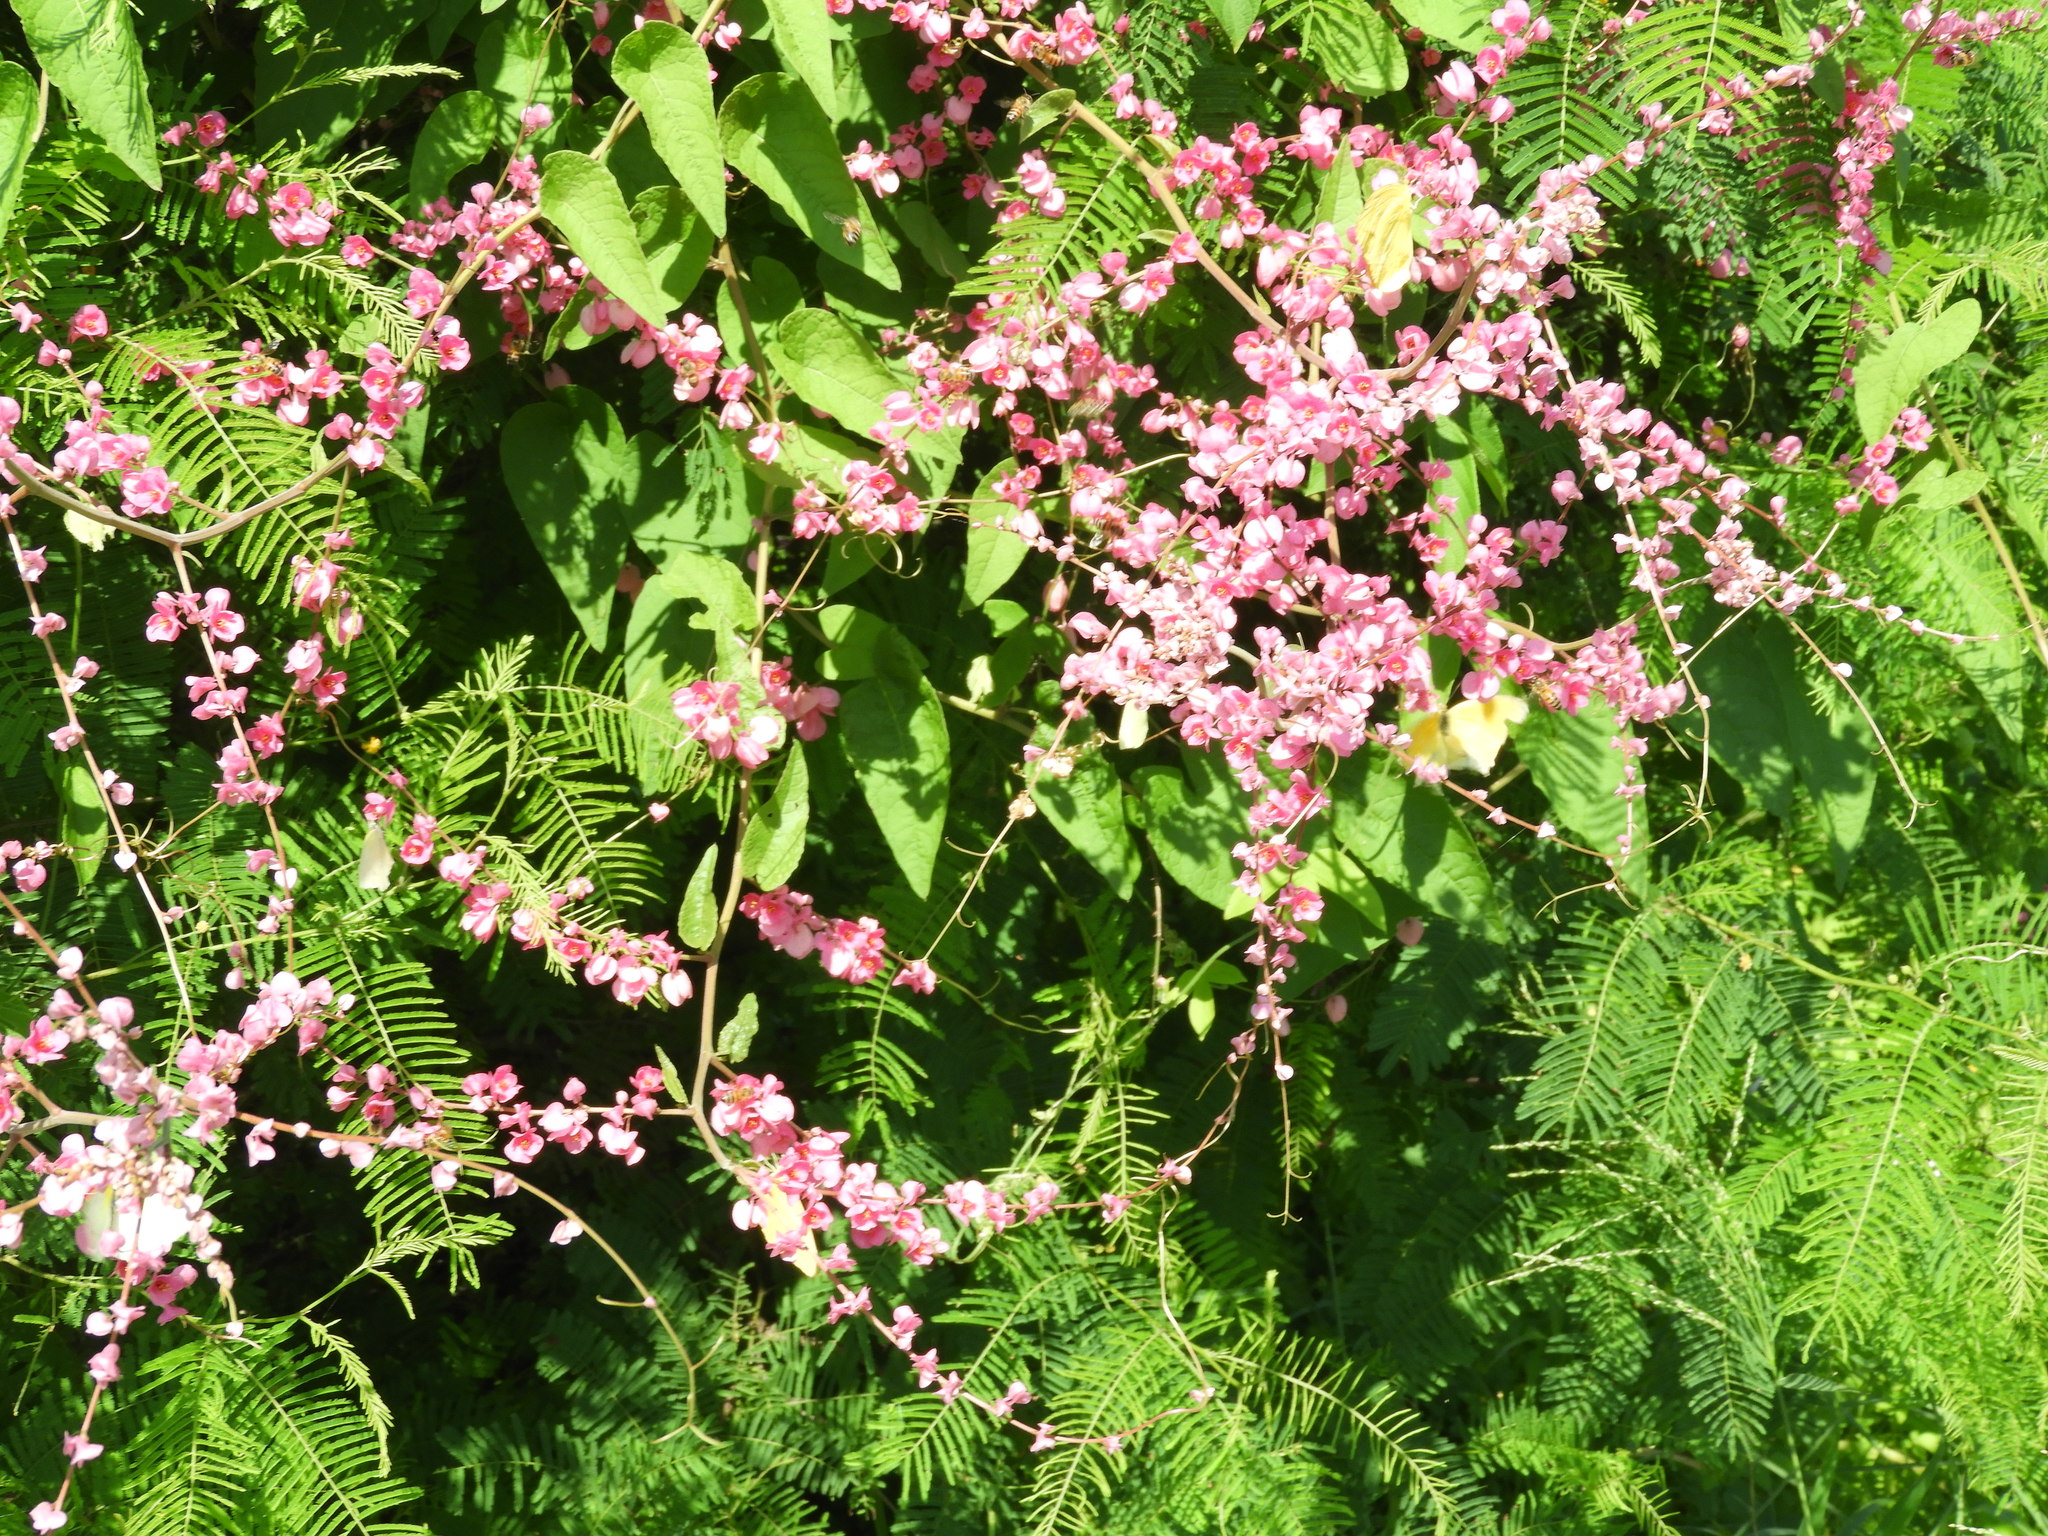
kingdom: Plantae
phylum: Tracheophyta
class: Magnoliopsida
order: Caryophyllales
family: Polygonaceae
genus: Antigonon
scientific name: Antigonon leptopus
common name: Coral vine
